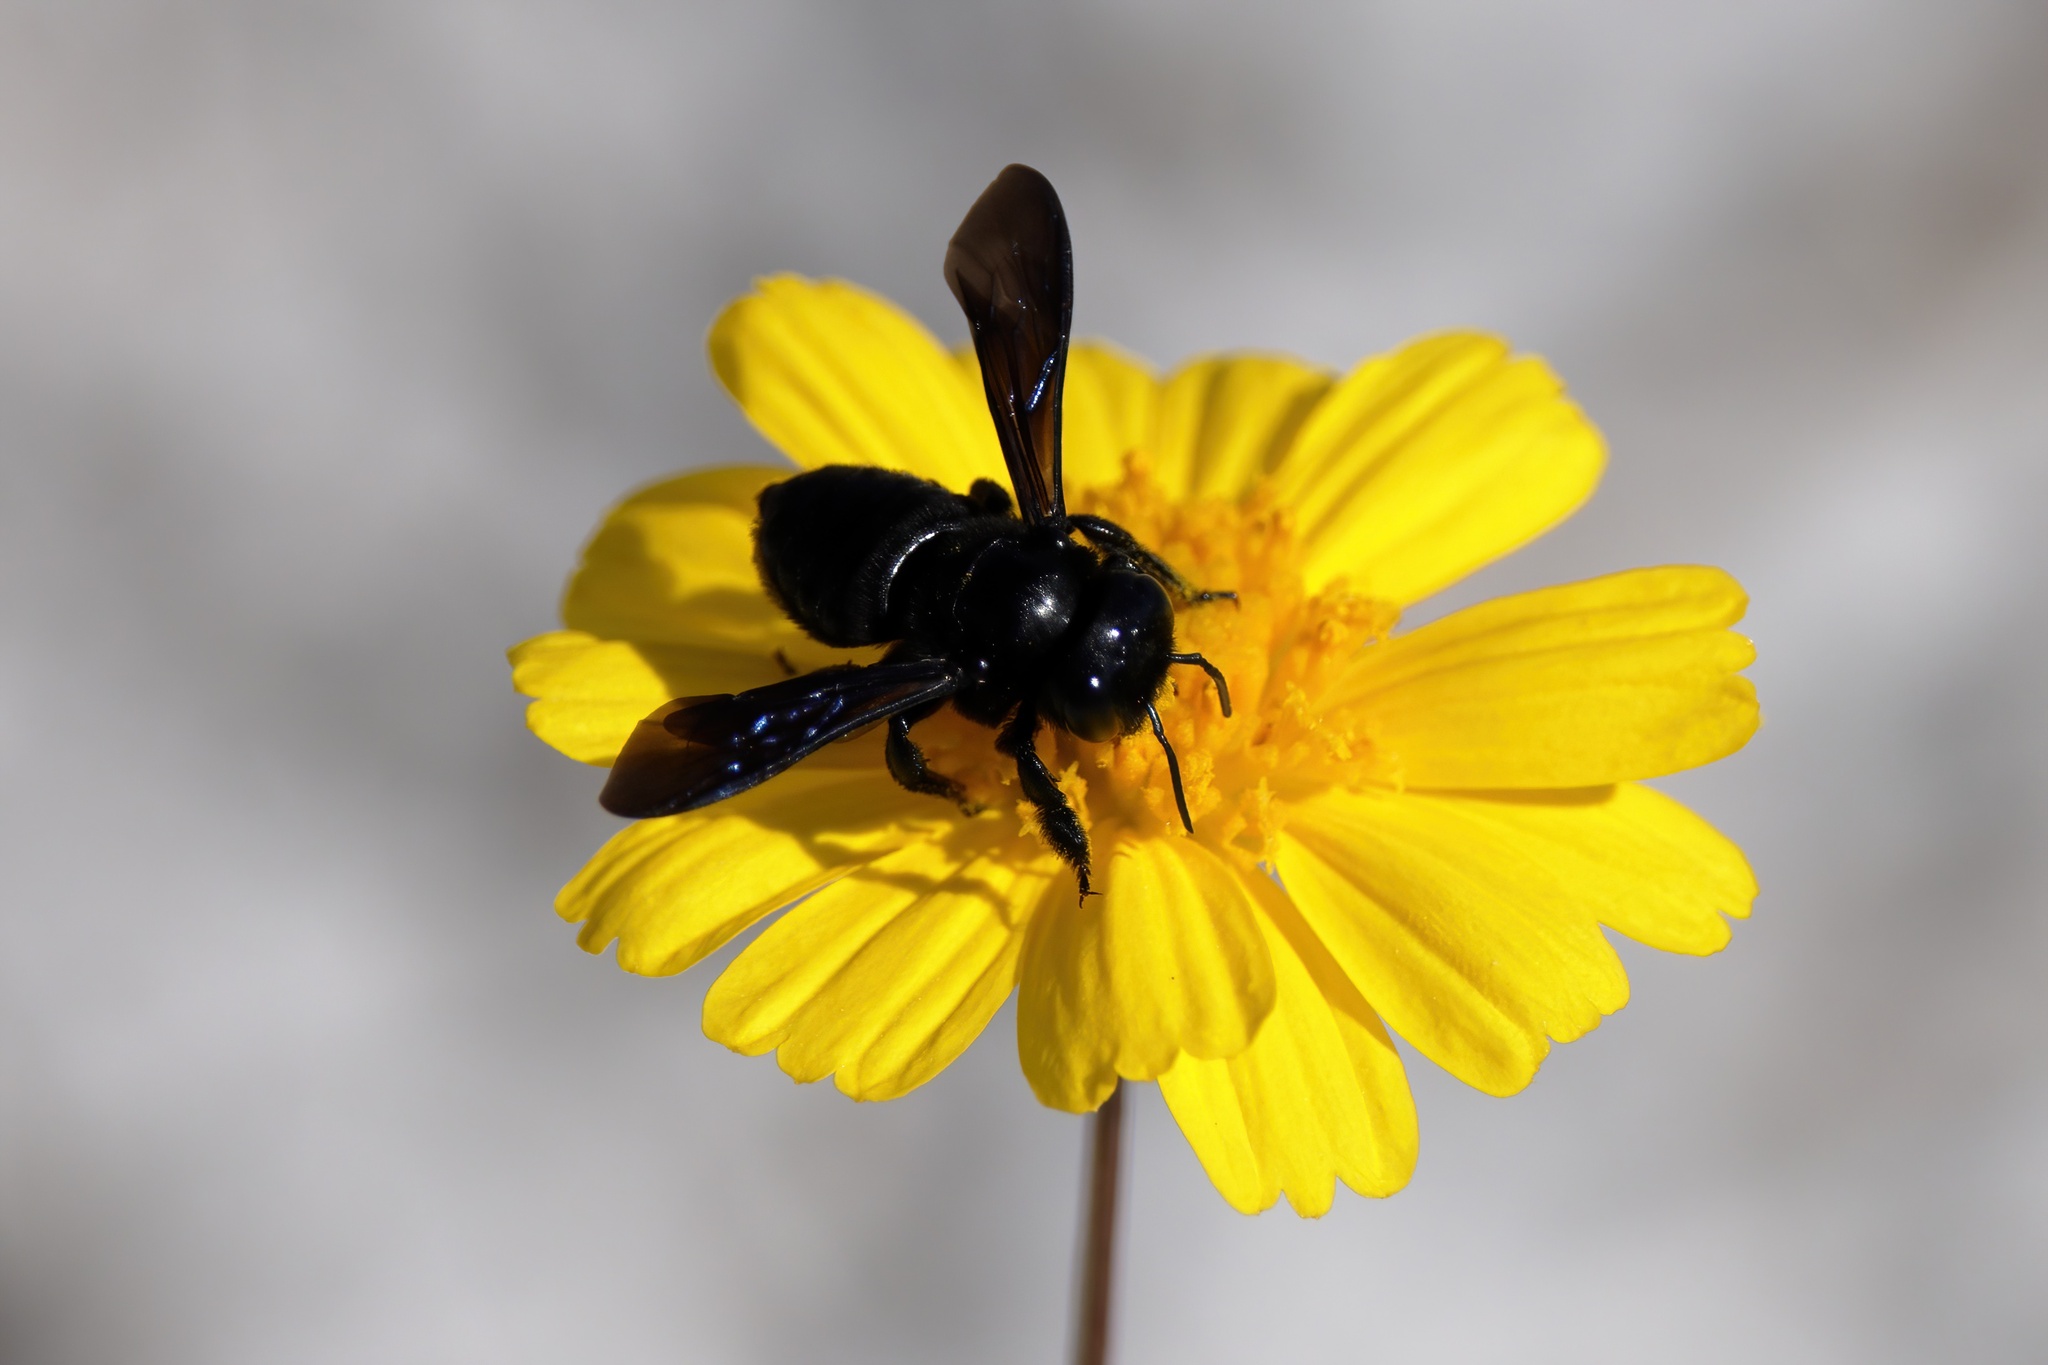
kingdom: Animalia
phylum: Arthropoda
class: Insecta
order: Hymenoptera
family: Megachilidae
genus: Megachile
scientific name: Megachile xylocopoides
